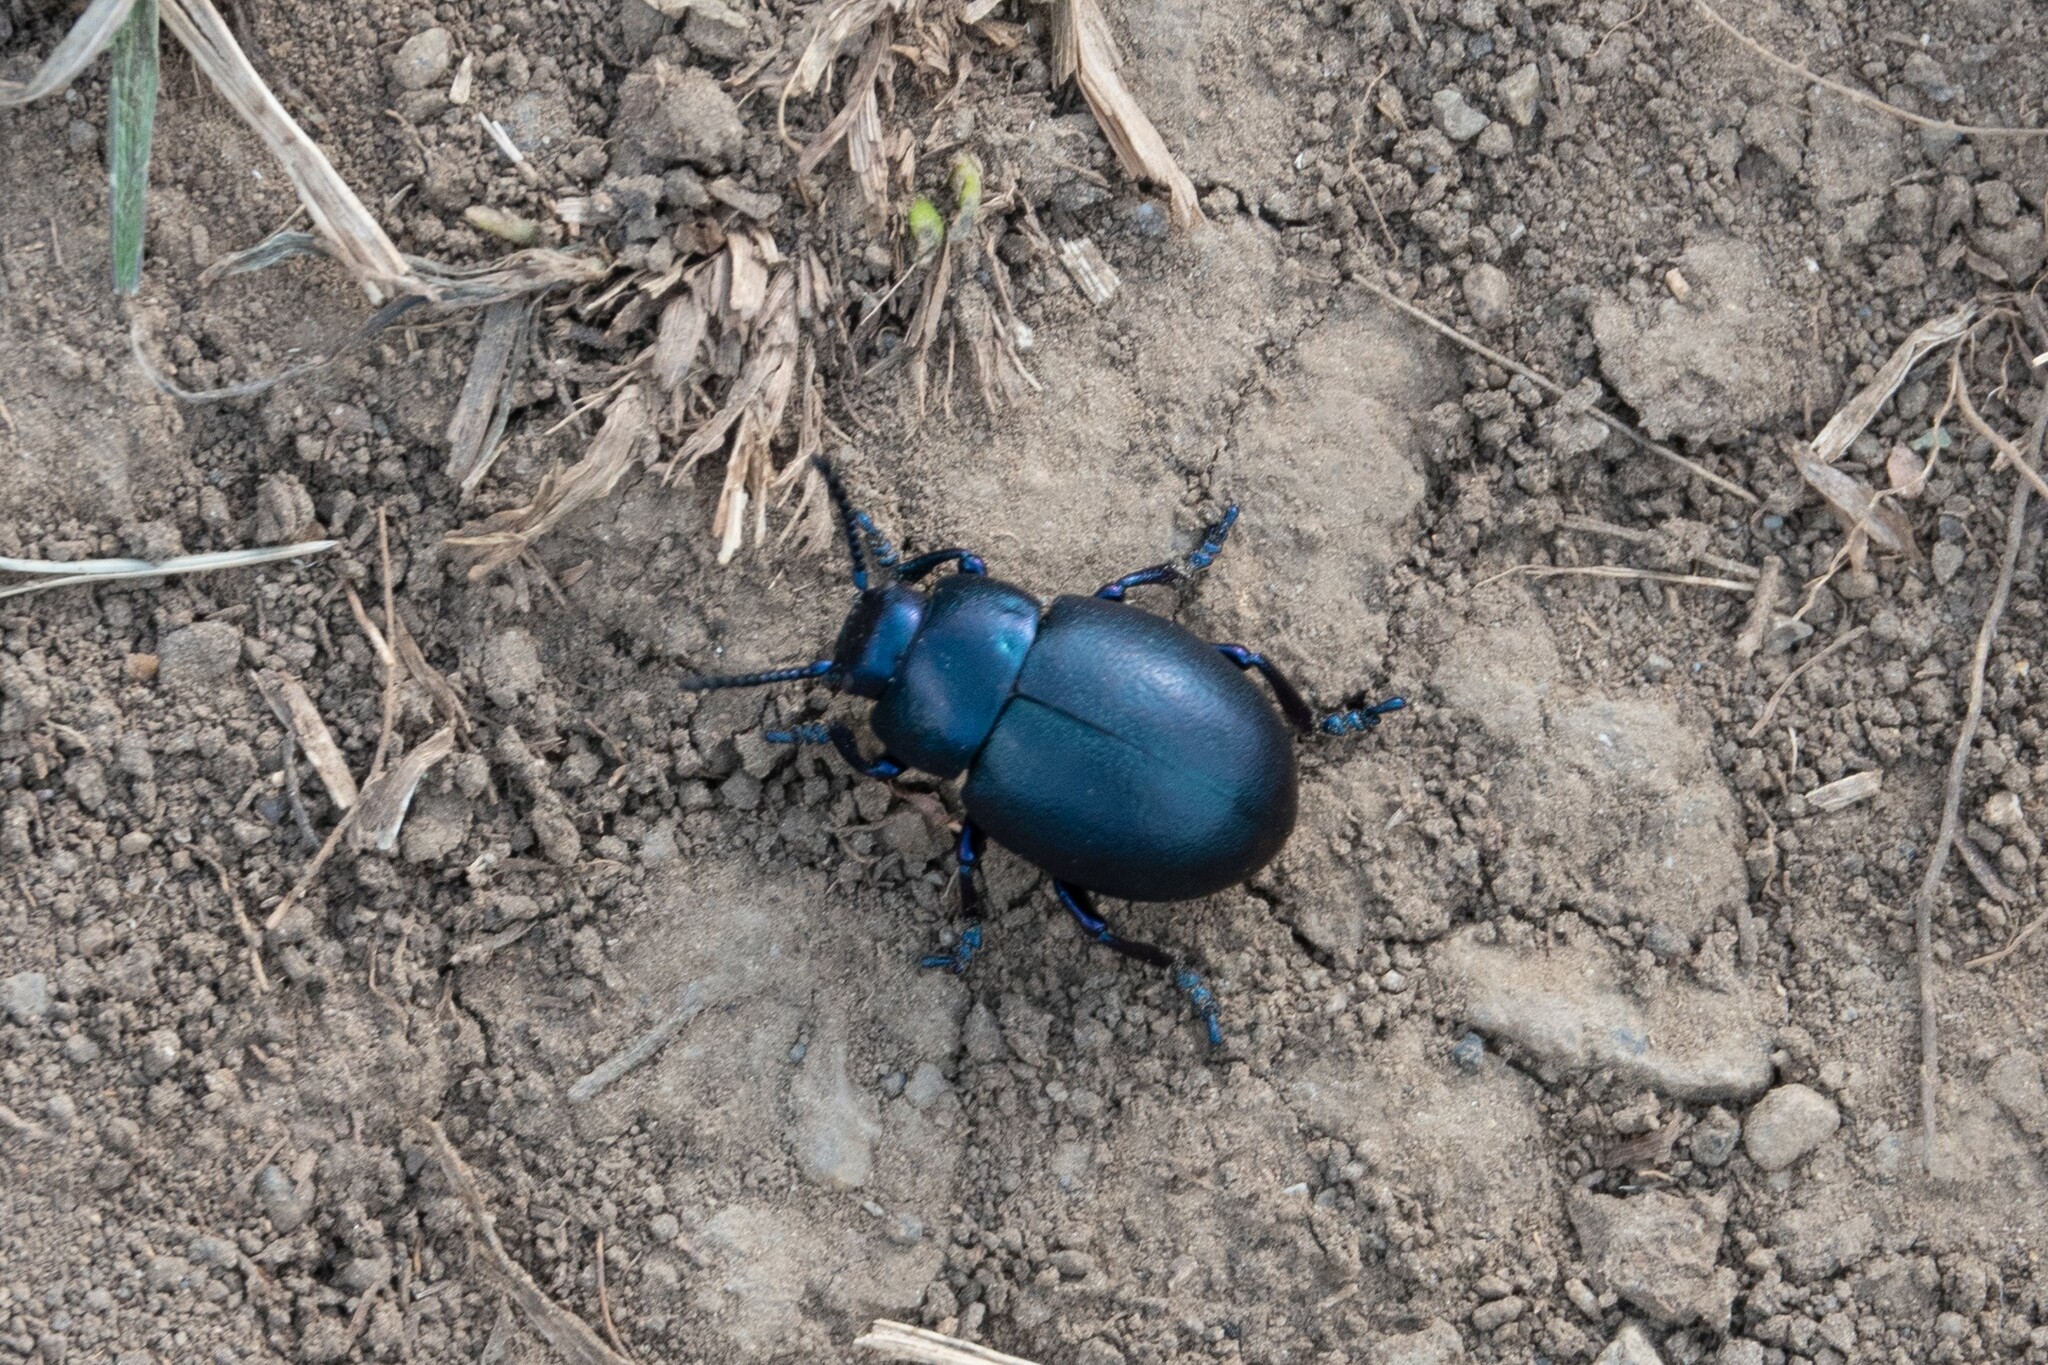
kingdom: Animalia
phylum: Arthropoda
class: Insecta
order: Coleoptera
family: Chrysomelidae
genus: Timarcha
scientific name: Timarcha goettingensis
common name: Small bloody-nosed beetle
